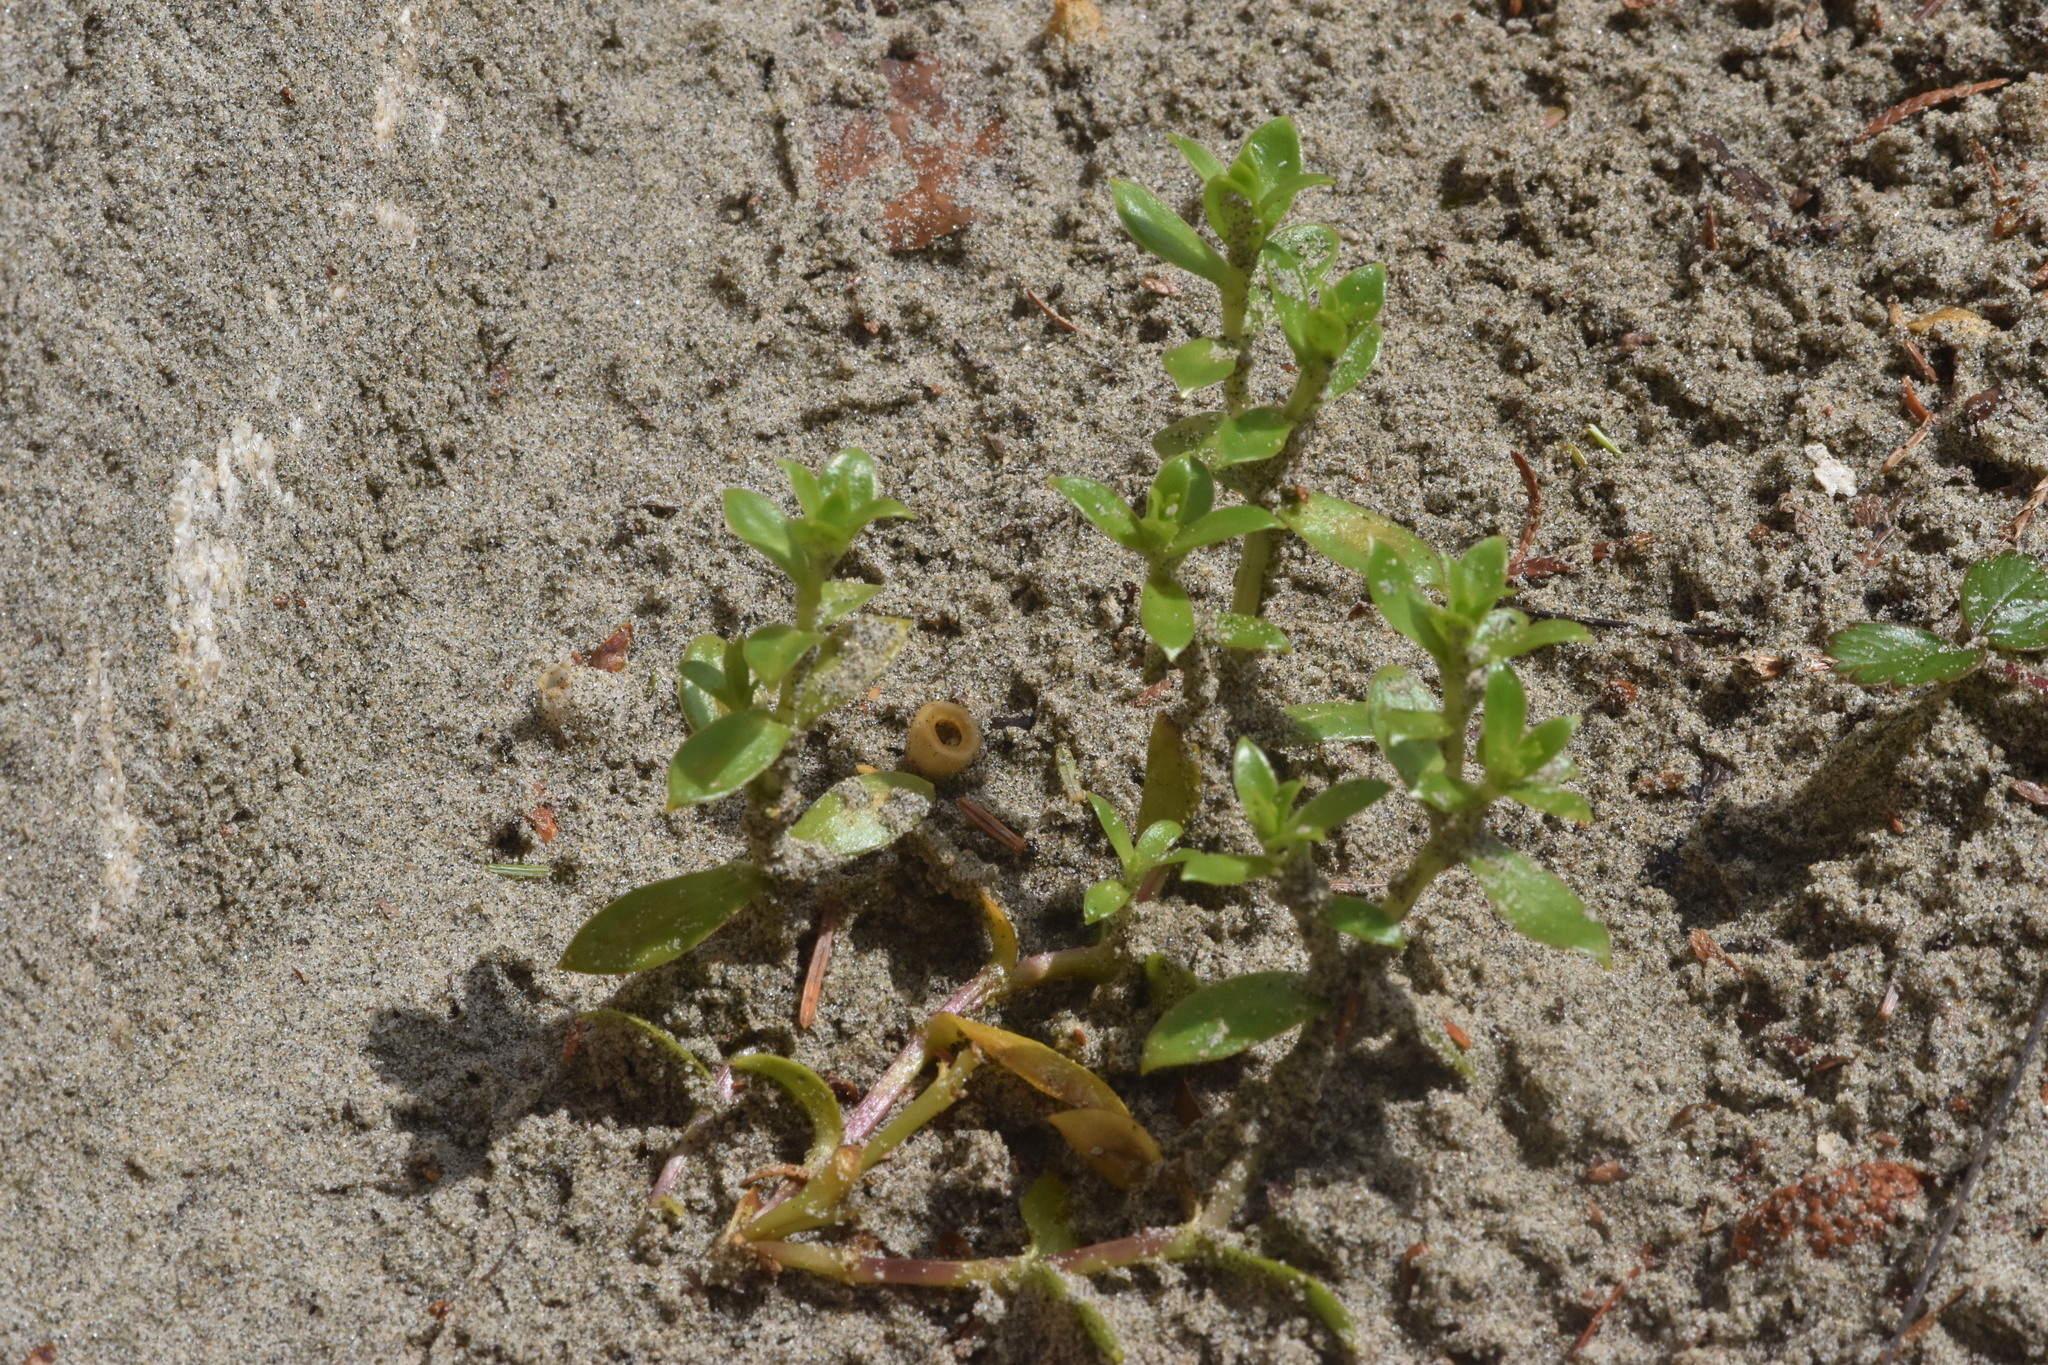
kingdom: Plantae
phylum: Tracheophyta
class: Magnoliopsida
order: Caryophyllales
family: Caryophyllaceae
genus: Honckenya
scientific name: Honckenya peploides
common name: Sea sandwort
